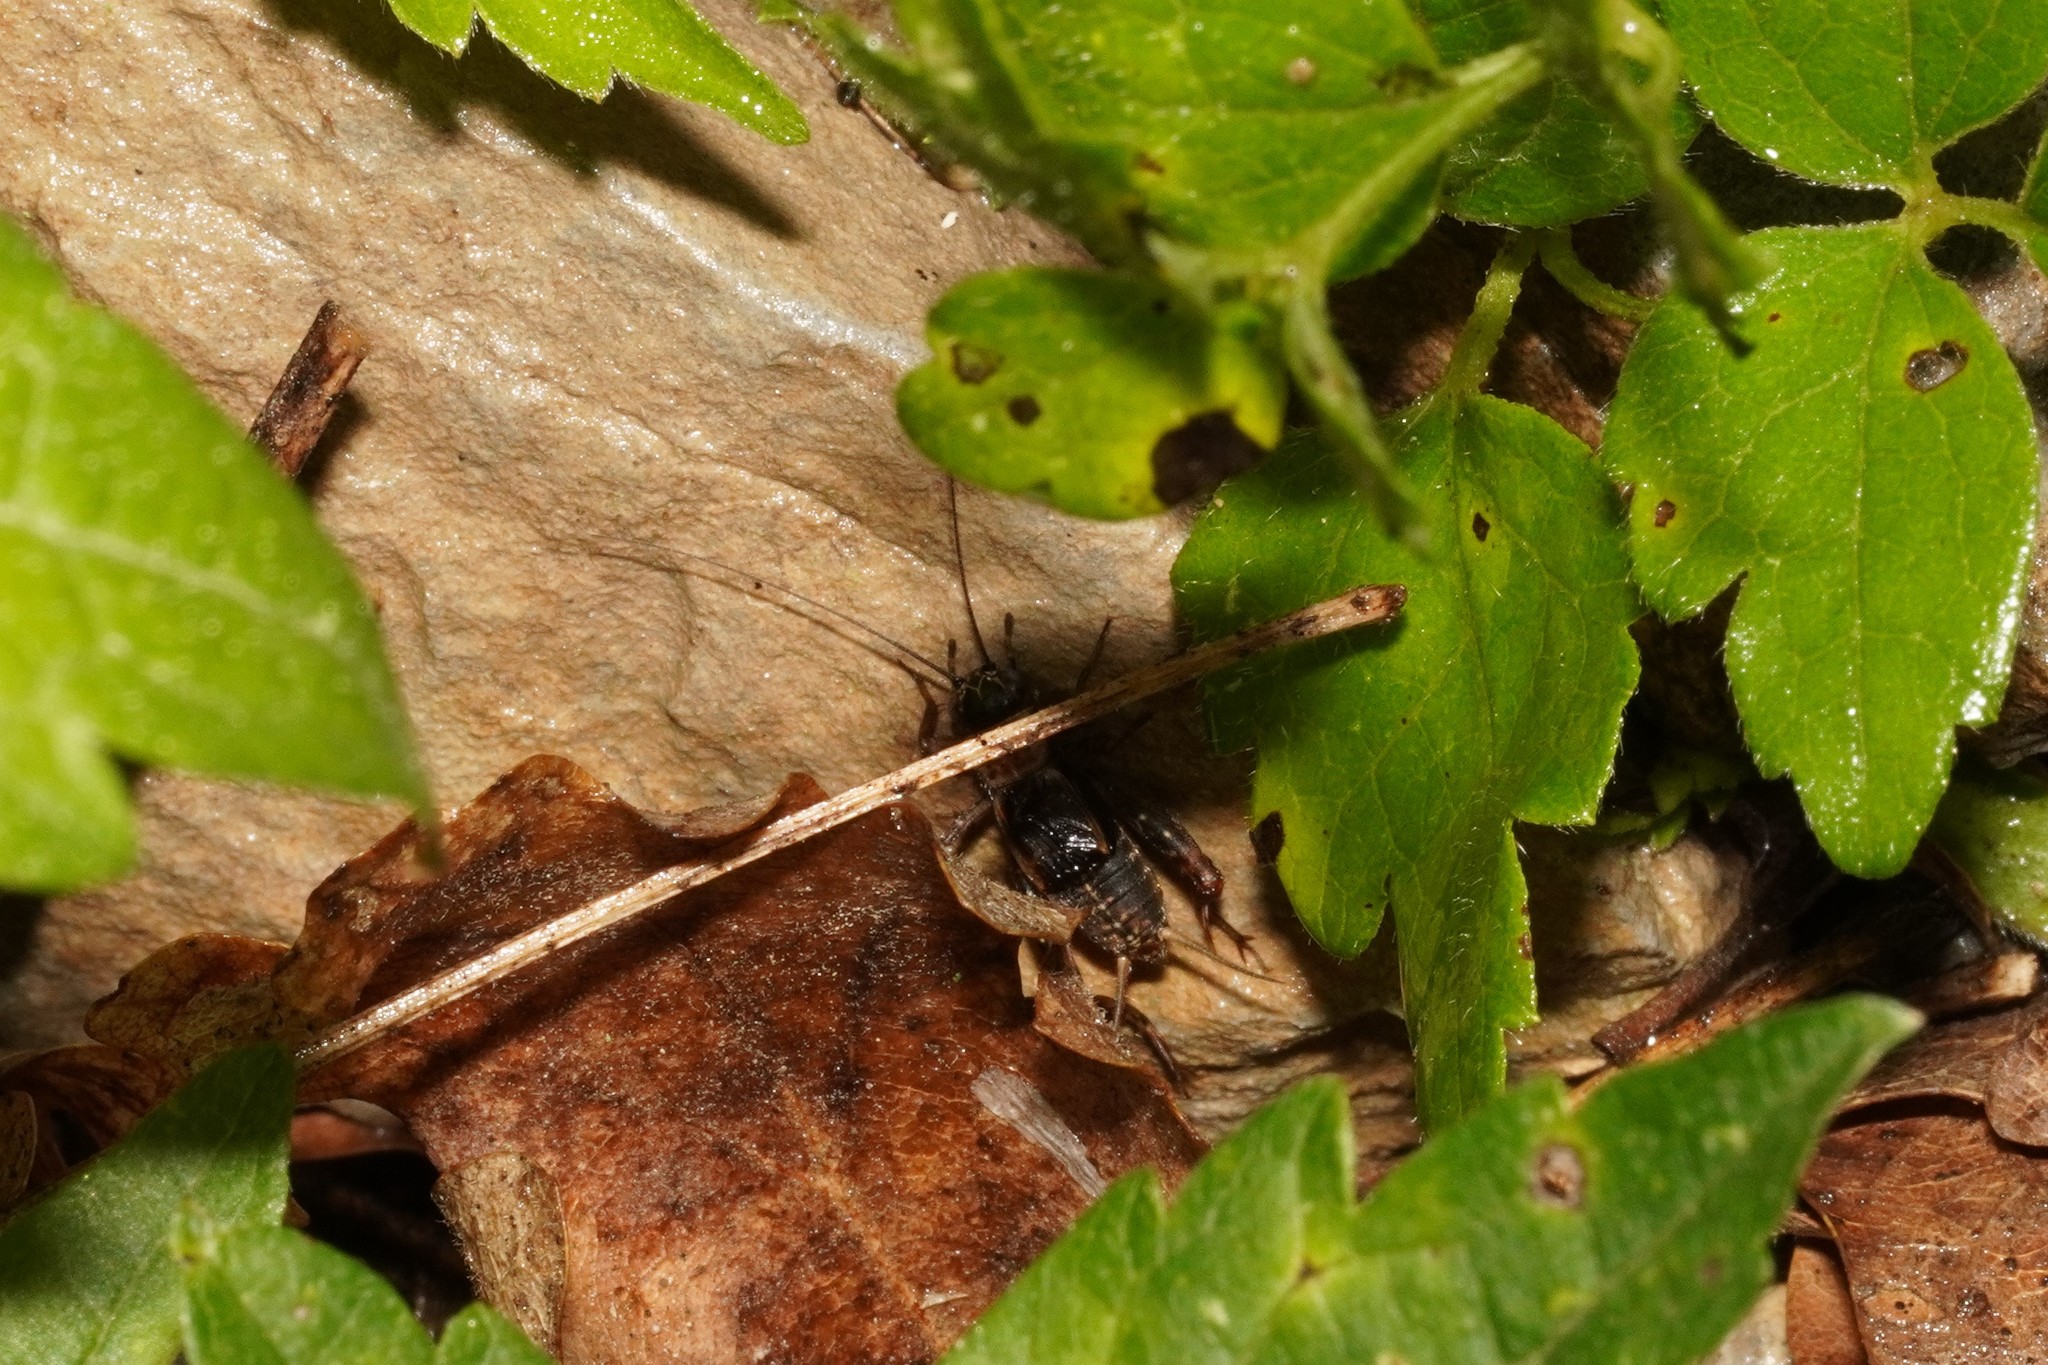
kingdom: Animalia
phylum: Arthropoda
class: Insecta
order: Orthoptera
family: Trigonidiidae
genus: Nemobius
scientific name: Nemobius sylvestris
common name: Wood-cricket
